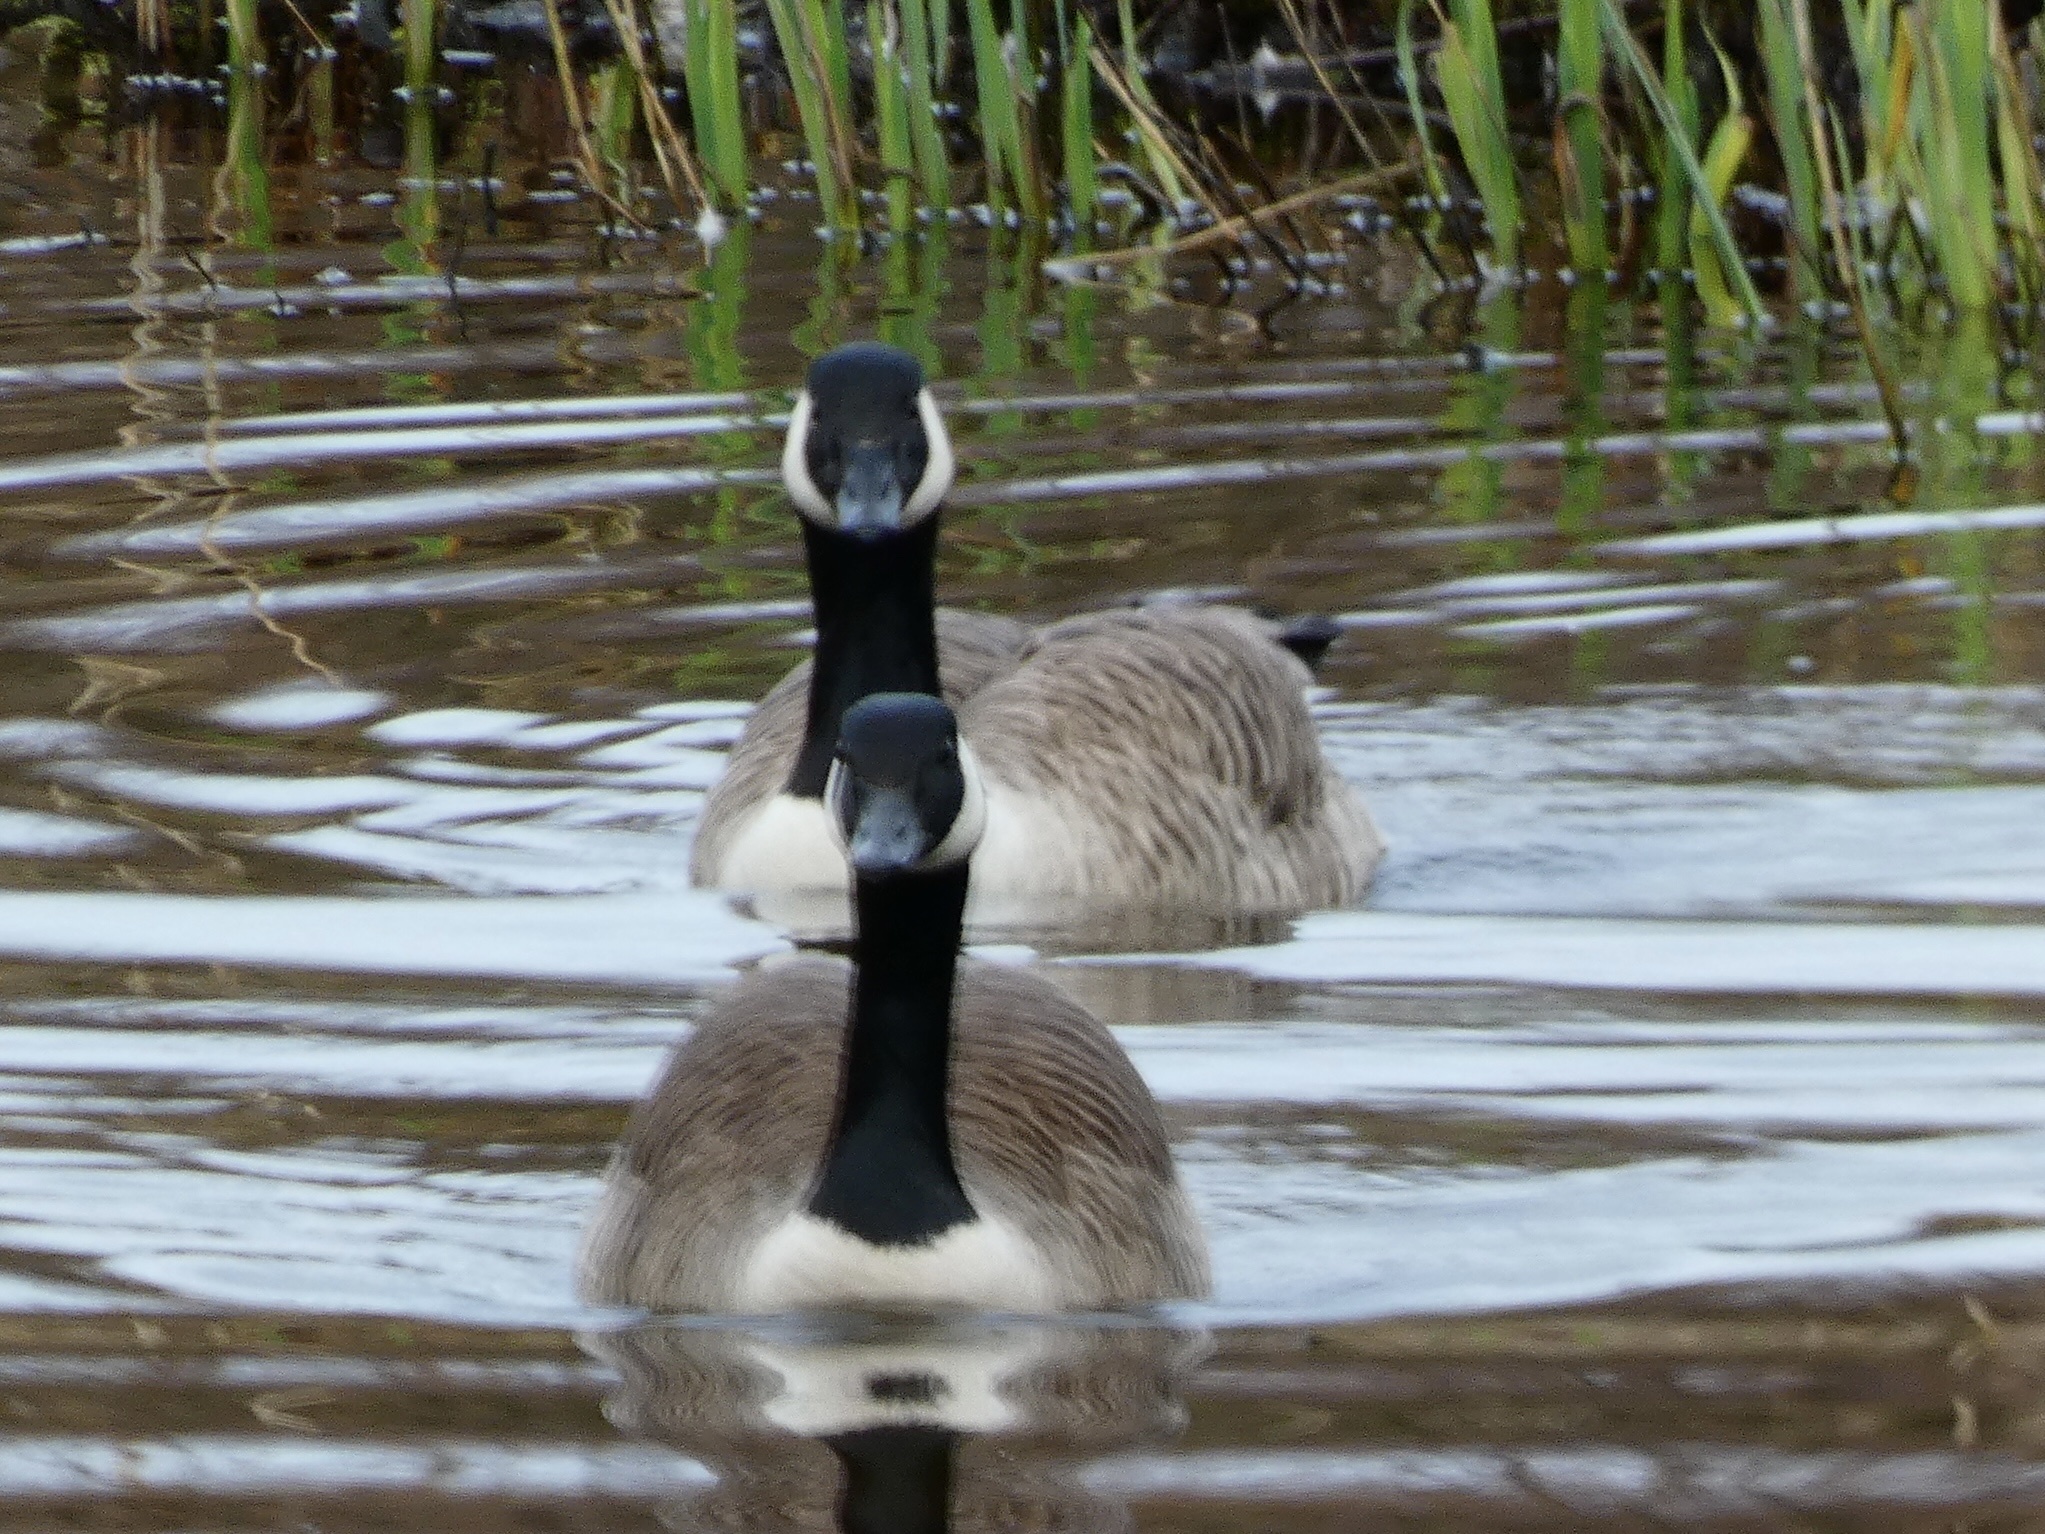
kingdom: Animalia
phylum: Chordata
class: Aves
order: Anseriformes
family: Anatidae
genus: Branta
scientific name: Branta canadensis
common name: Canada goose
